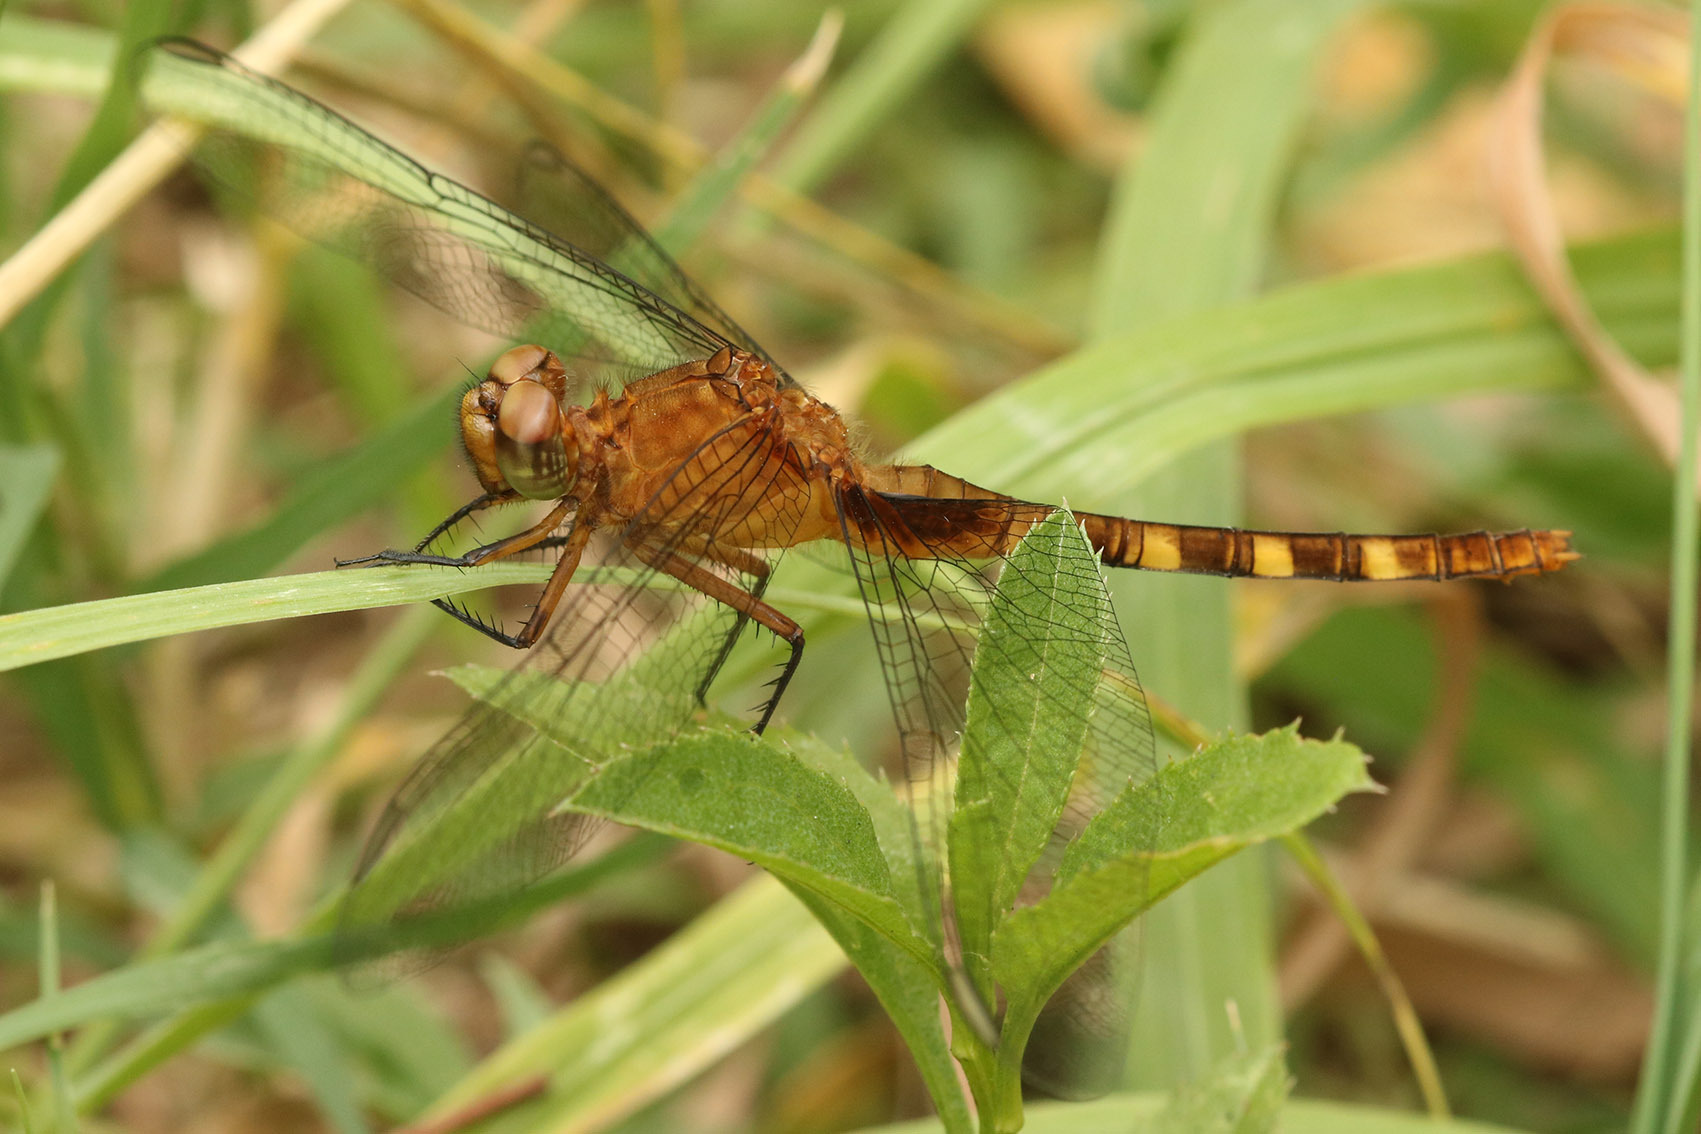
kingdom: Animalia
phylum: Arthropoda
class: Insecta
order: Odonata
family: Libellulidae
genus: Erythemis
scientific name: Erythemis attala
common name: Black pondhawk
